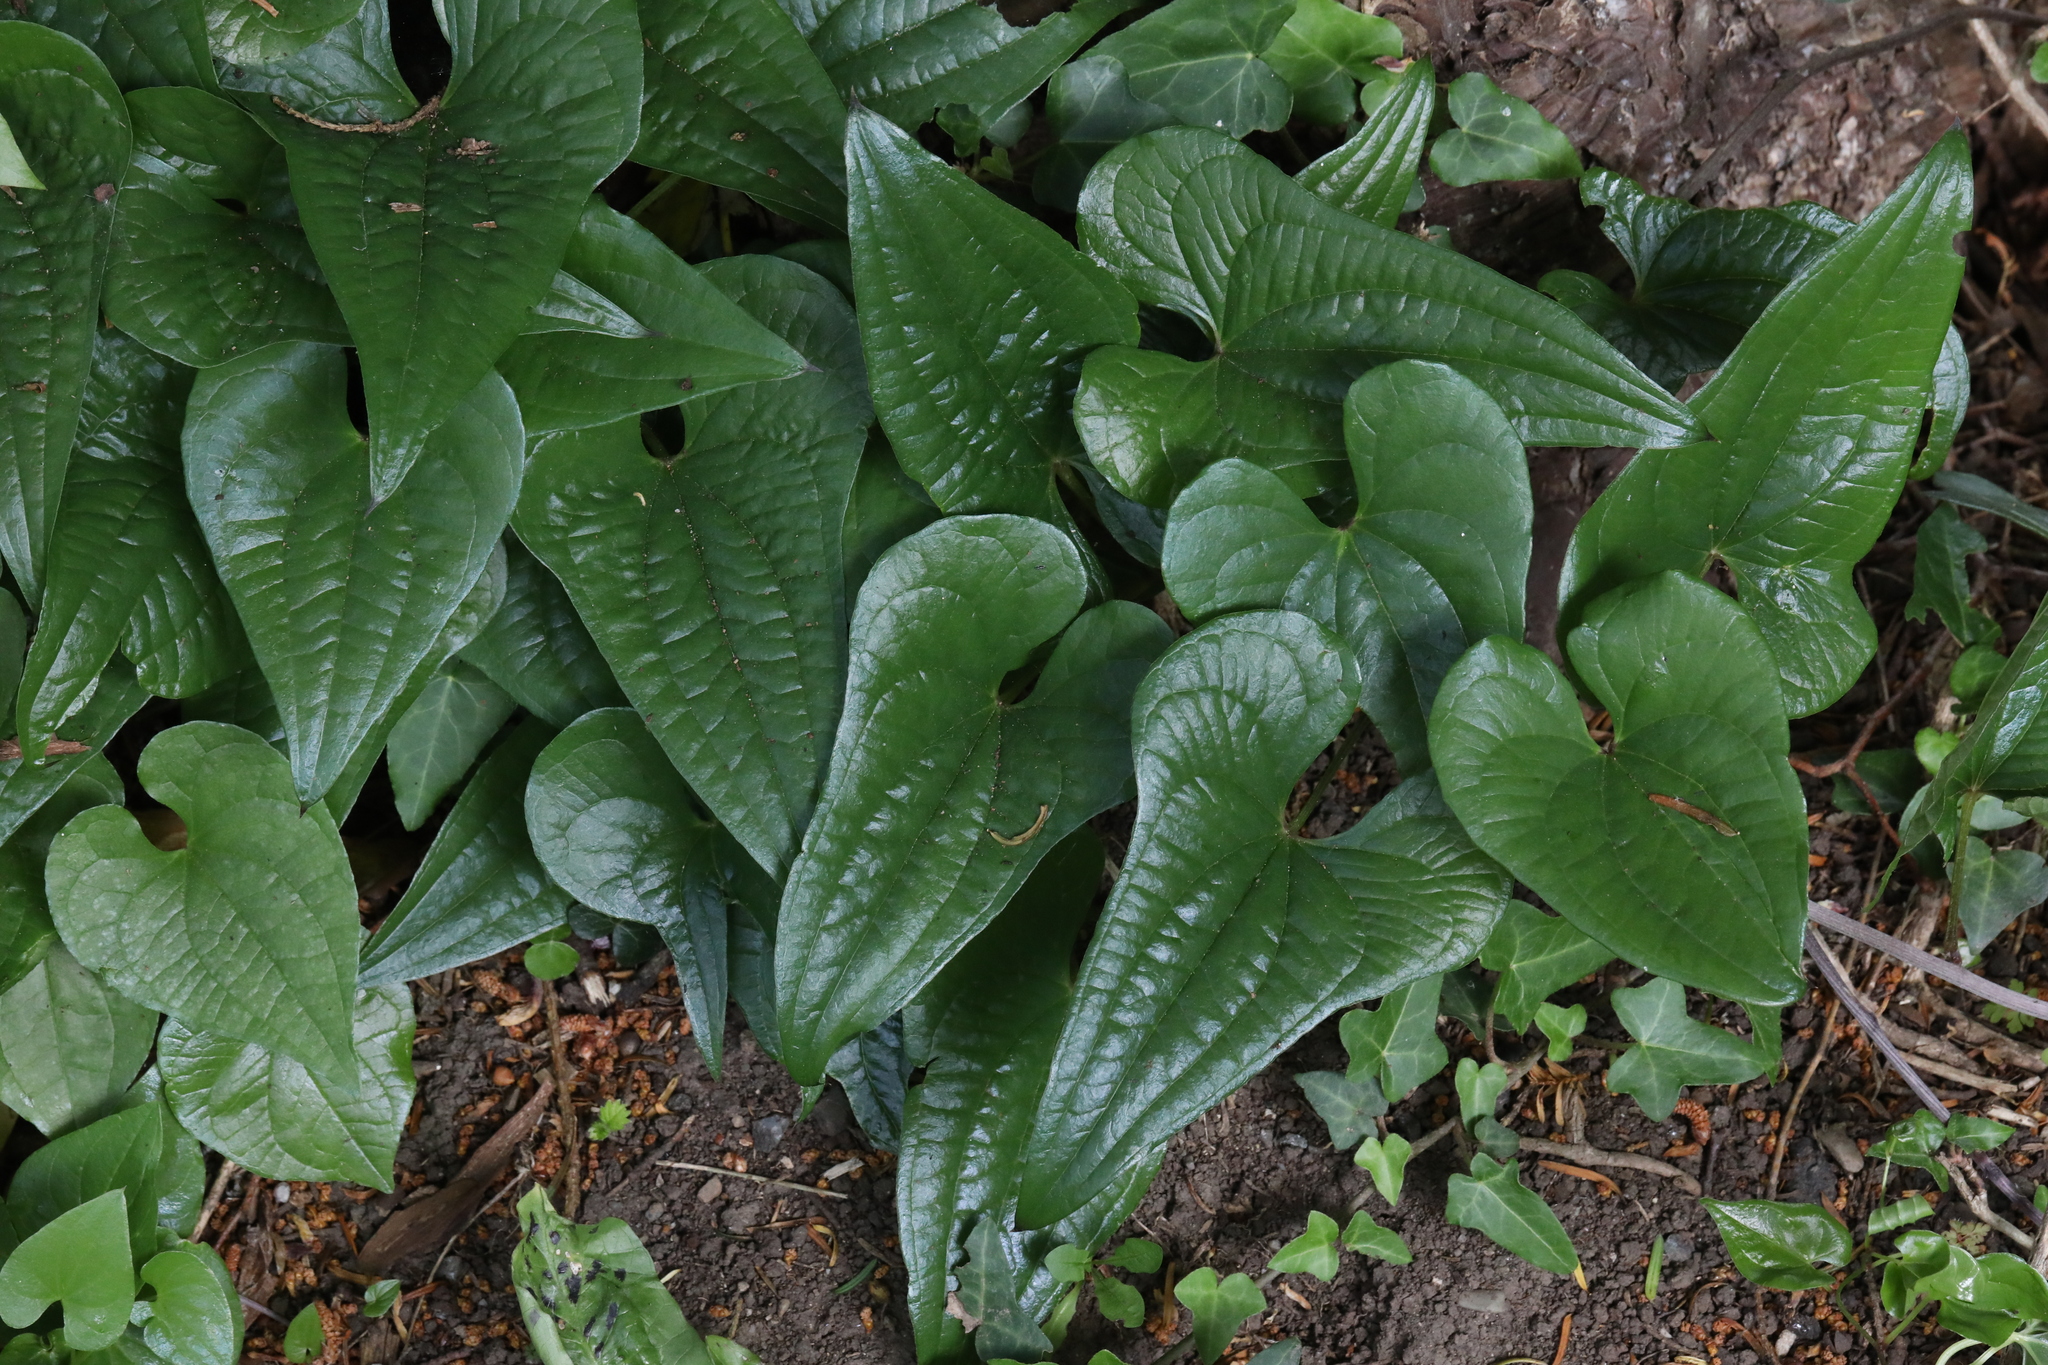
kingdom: Plantae
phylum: Tracheophyta
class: Liliopsida
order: Dioscoreales
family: Dioscoreaceae
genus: Dioscorea
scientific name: Dioscorea communis
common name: Black-bindweed
